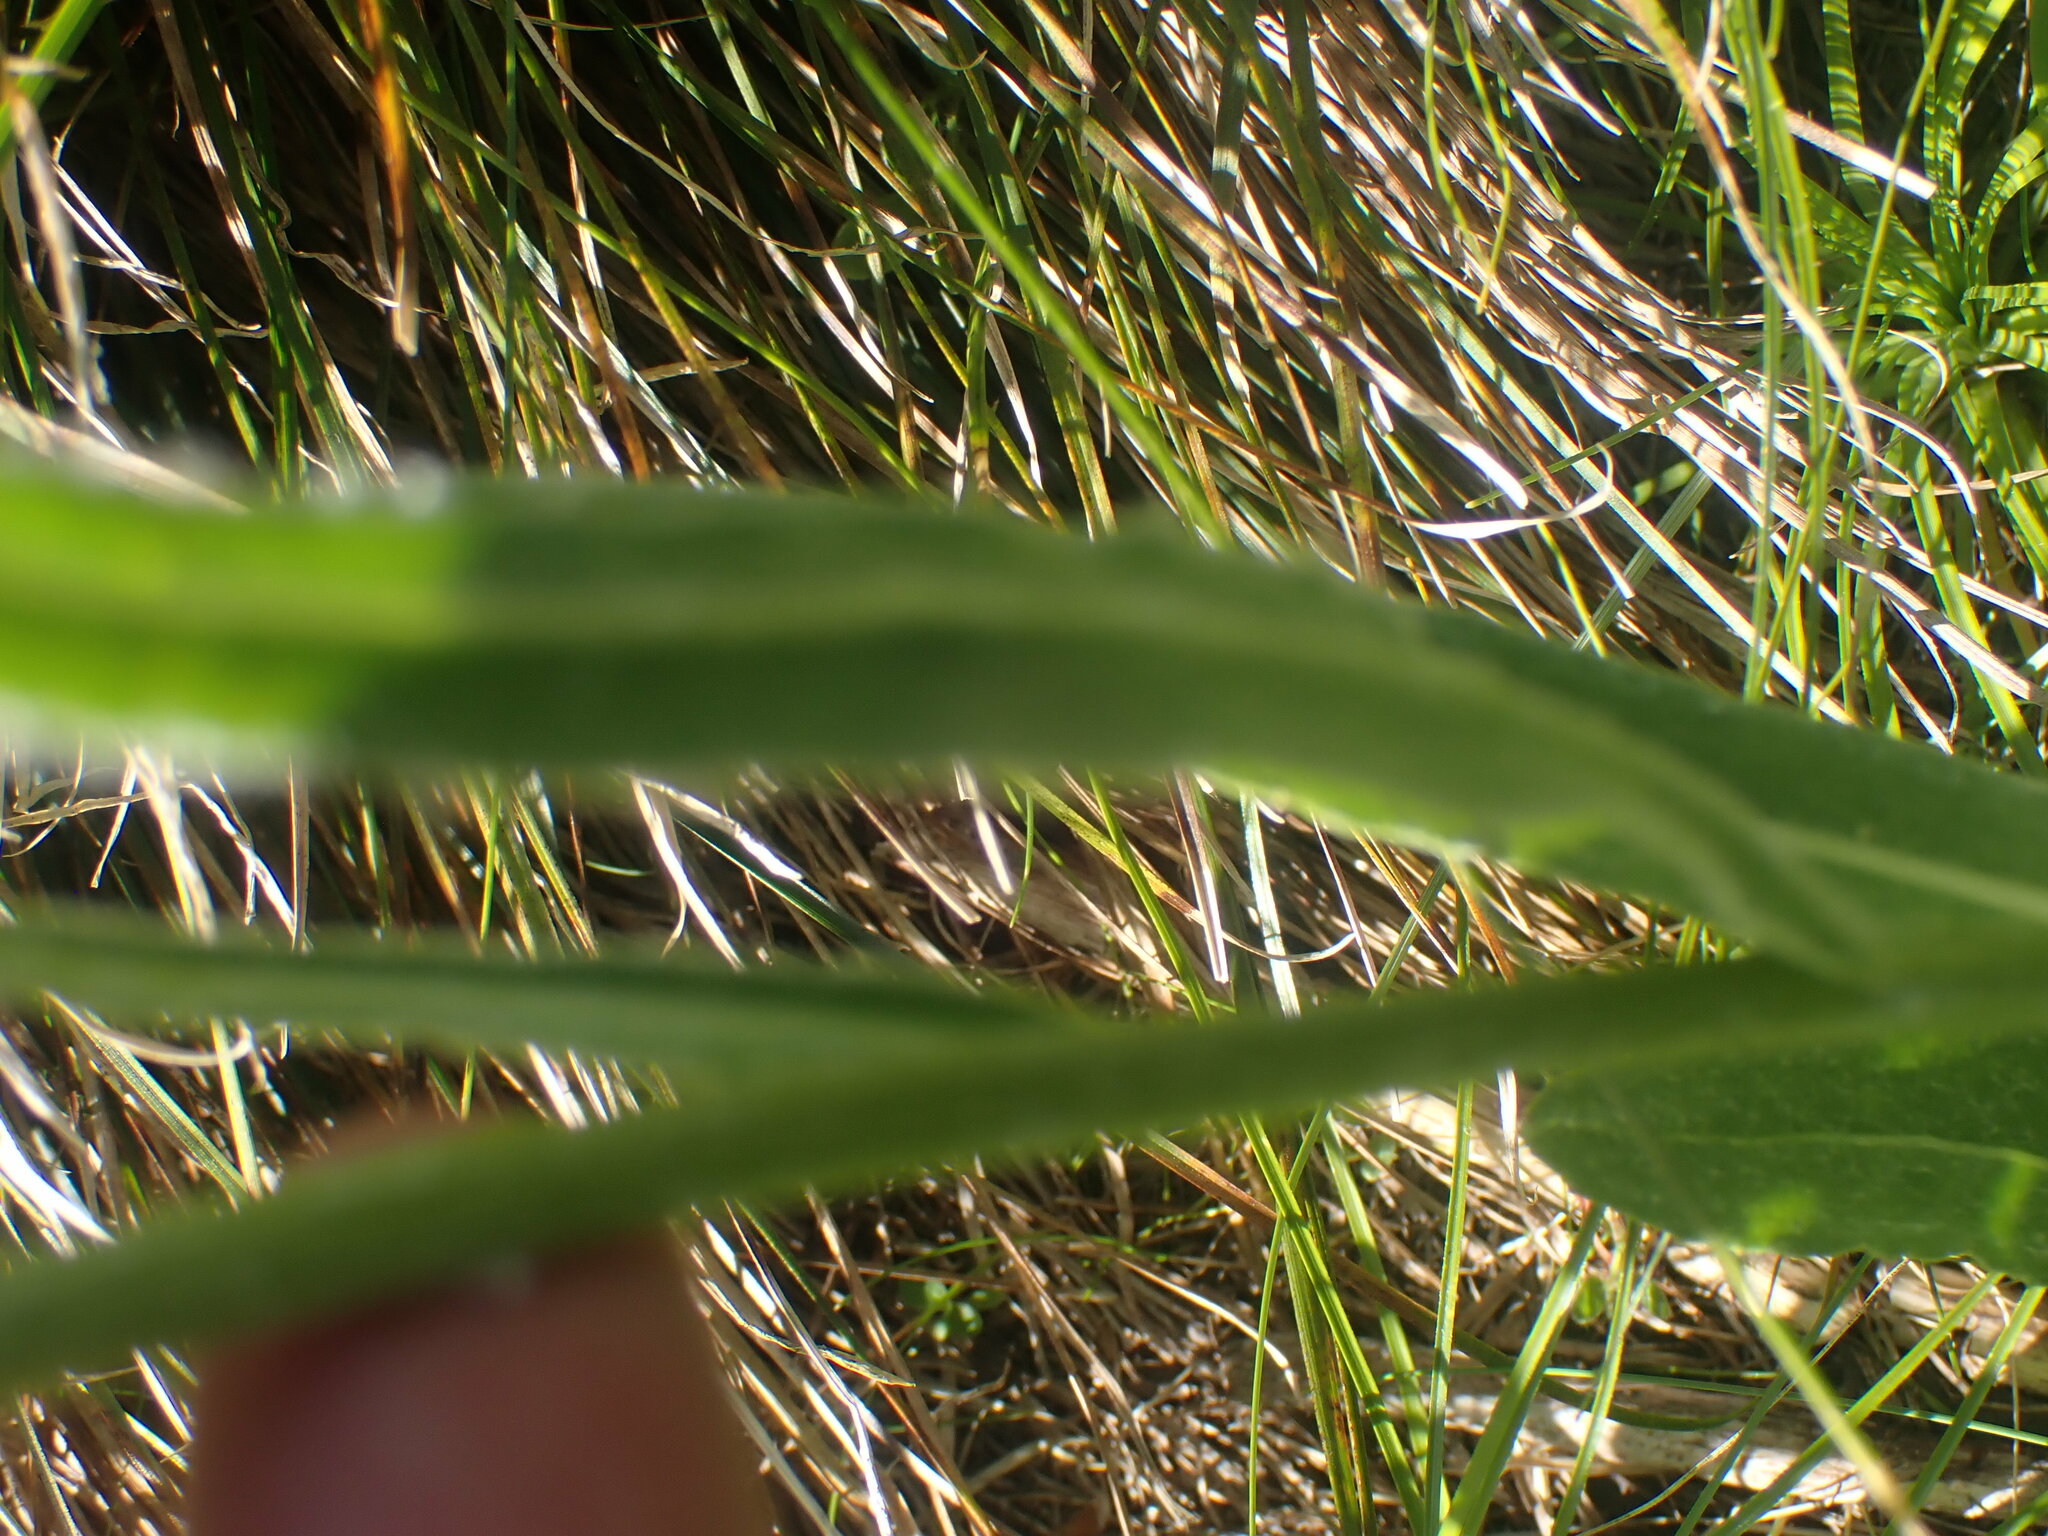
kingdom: Plantae
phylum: Tracheophyta
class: Magnoliopsida
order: Asterales
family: Asteraceae
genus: Senecio
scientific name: Senecio megacephalus
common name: Large-flowered ragwort
